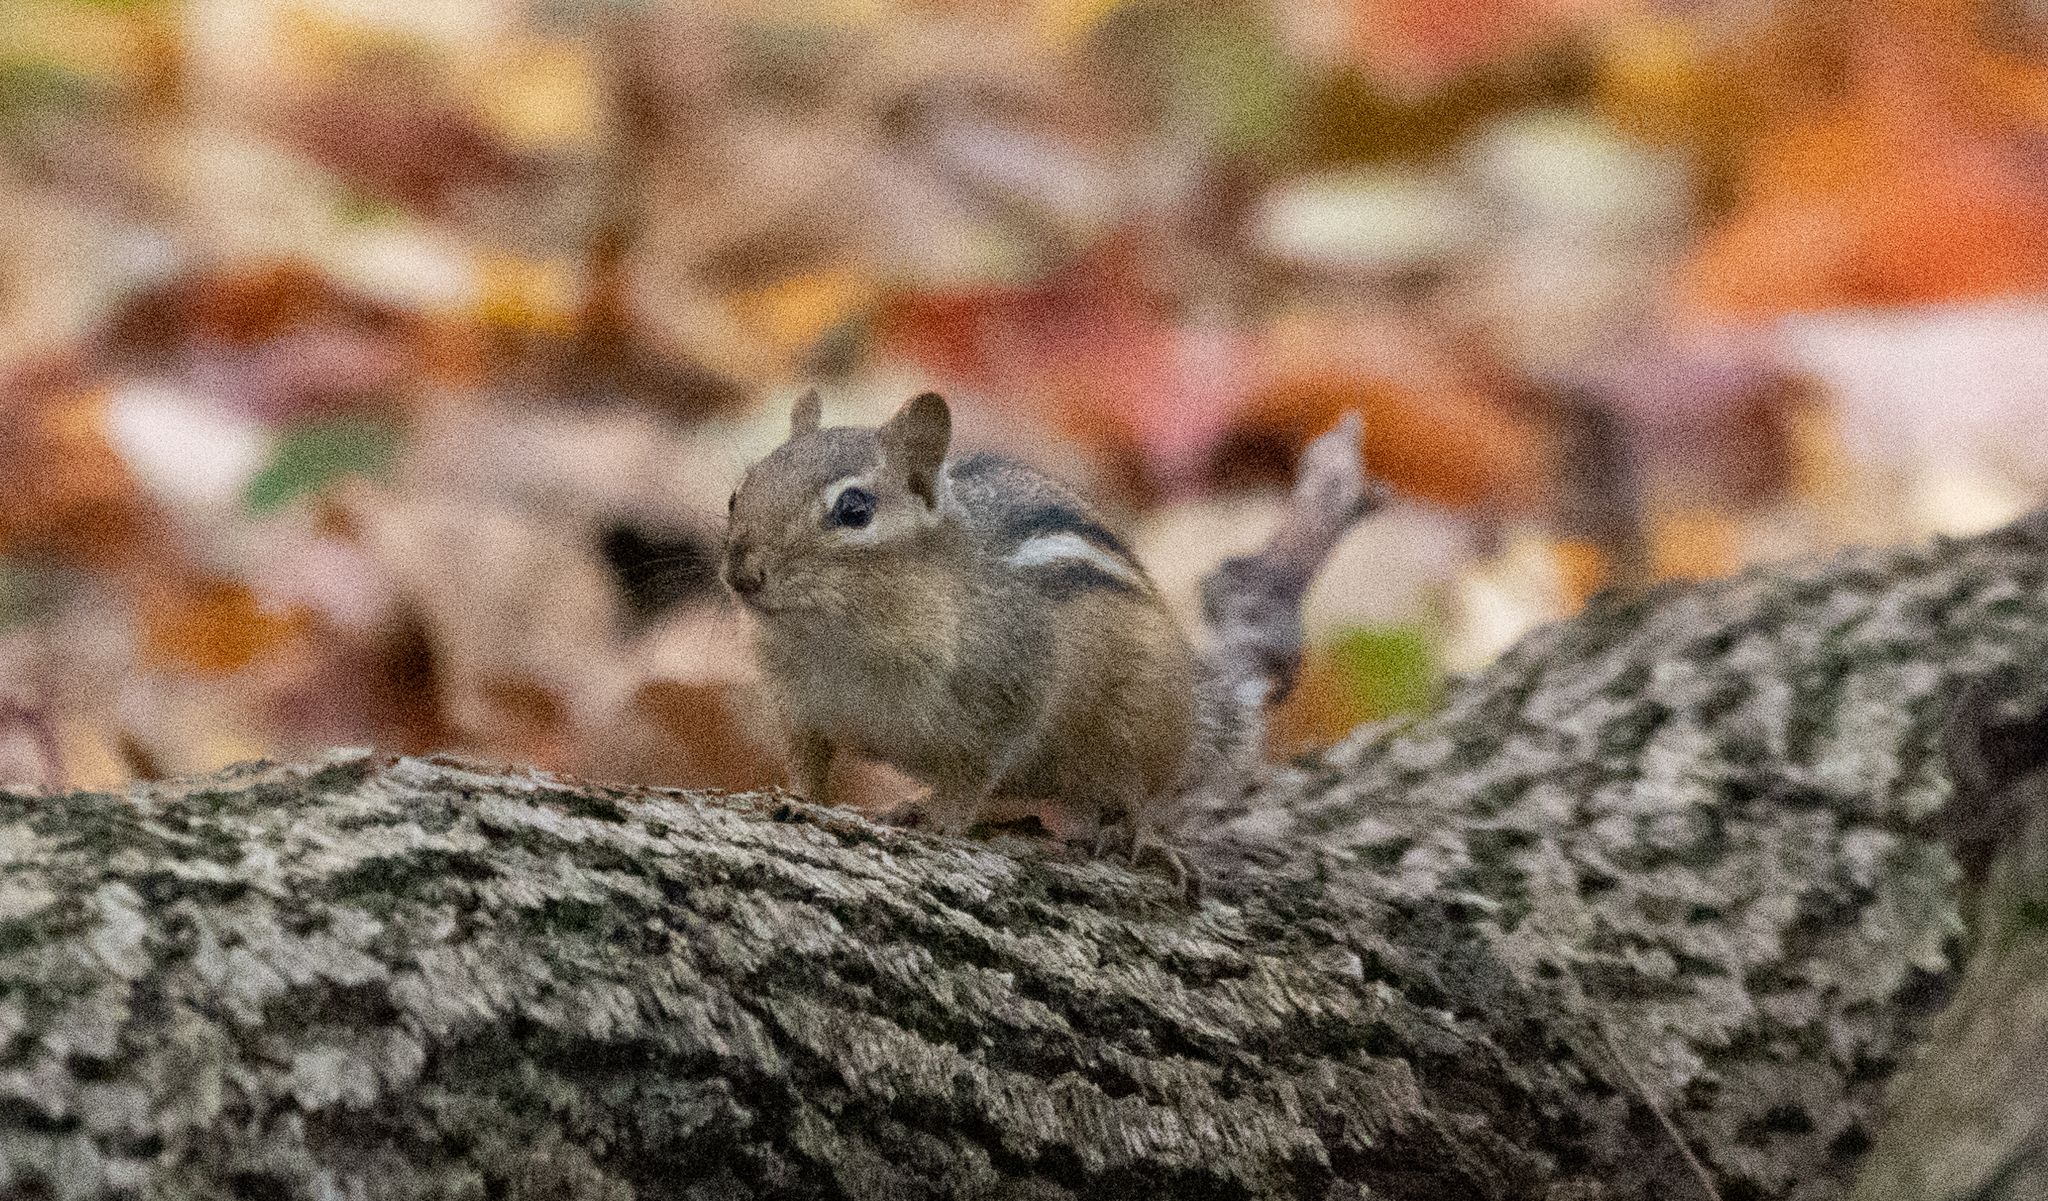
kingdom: Animalia
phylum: Chordata
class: Mammalia
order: Rodentia
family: Sciuridae
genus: Tamias
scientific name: Tamias striatus
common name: Eastern chipmunk
